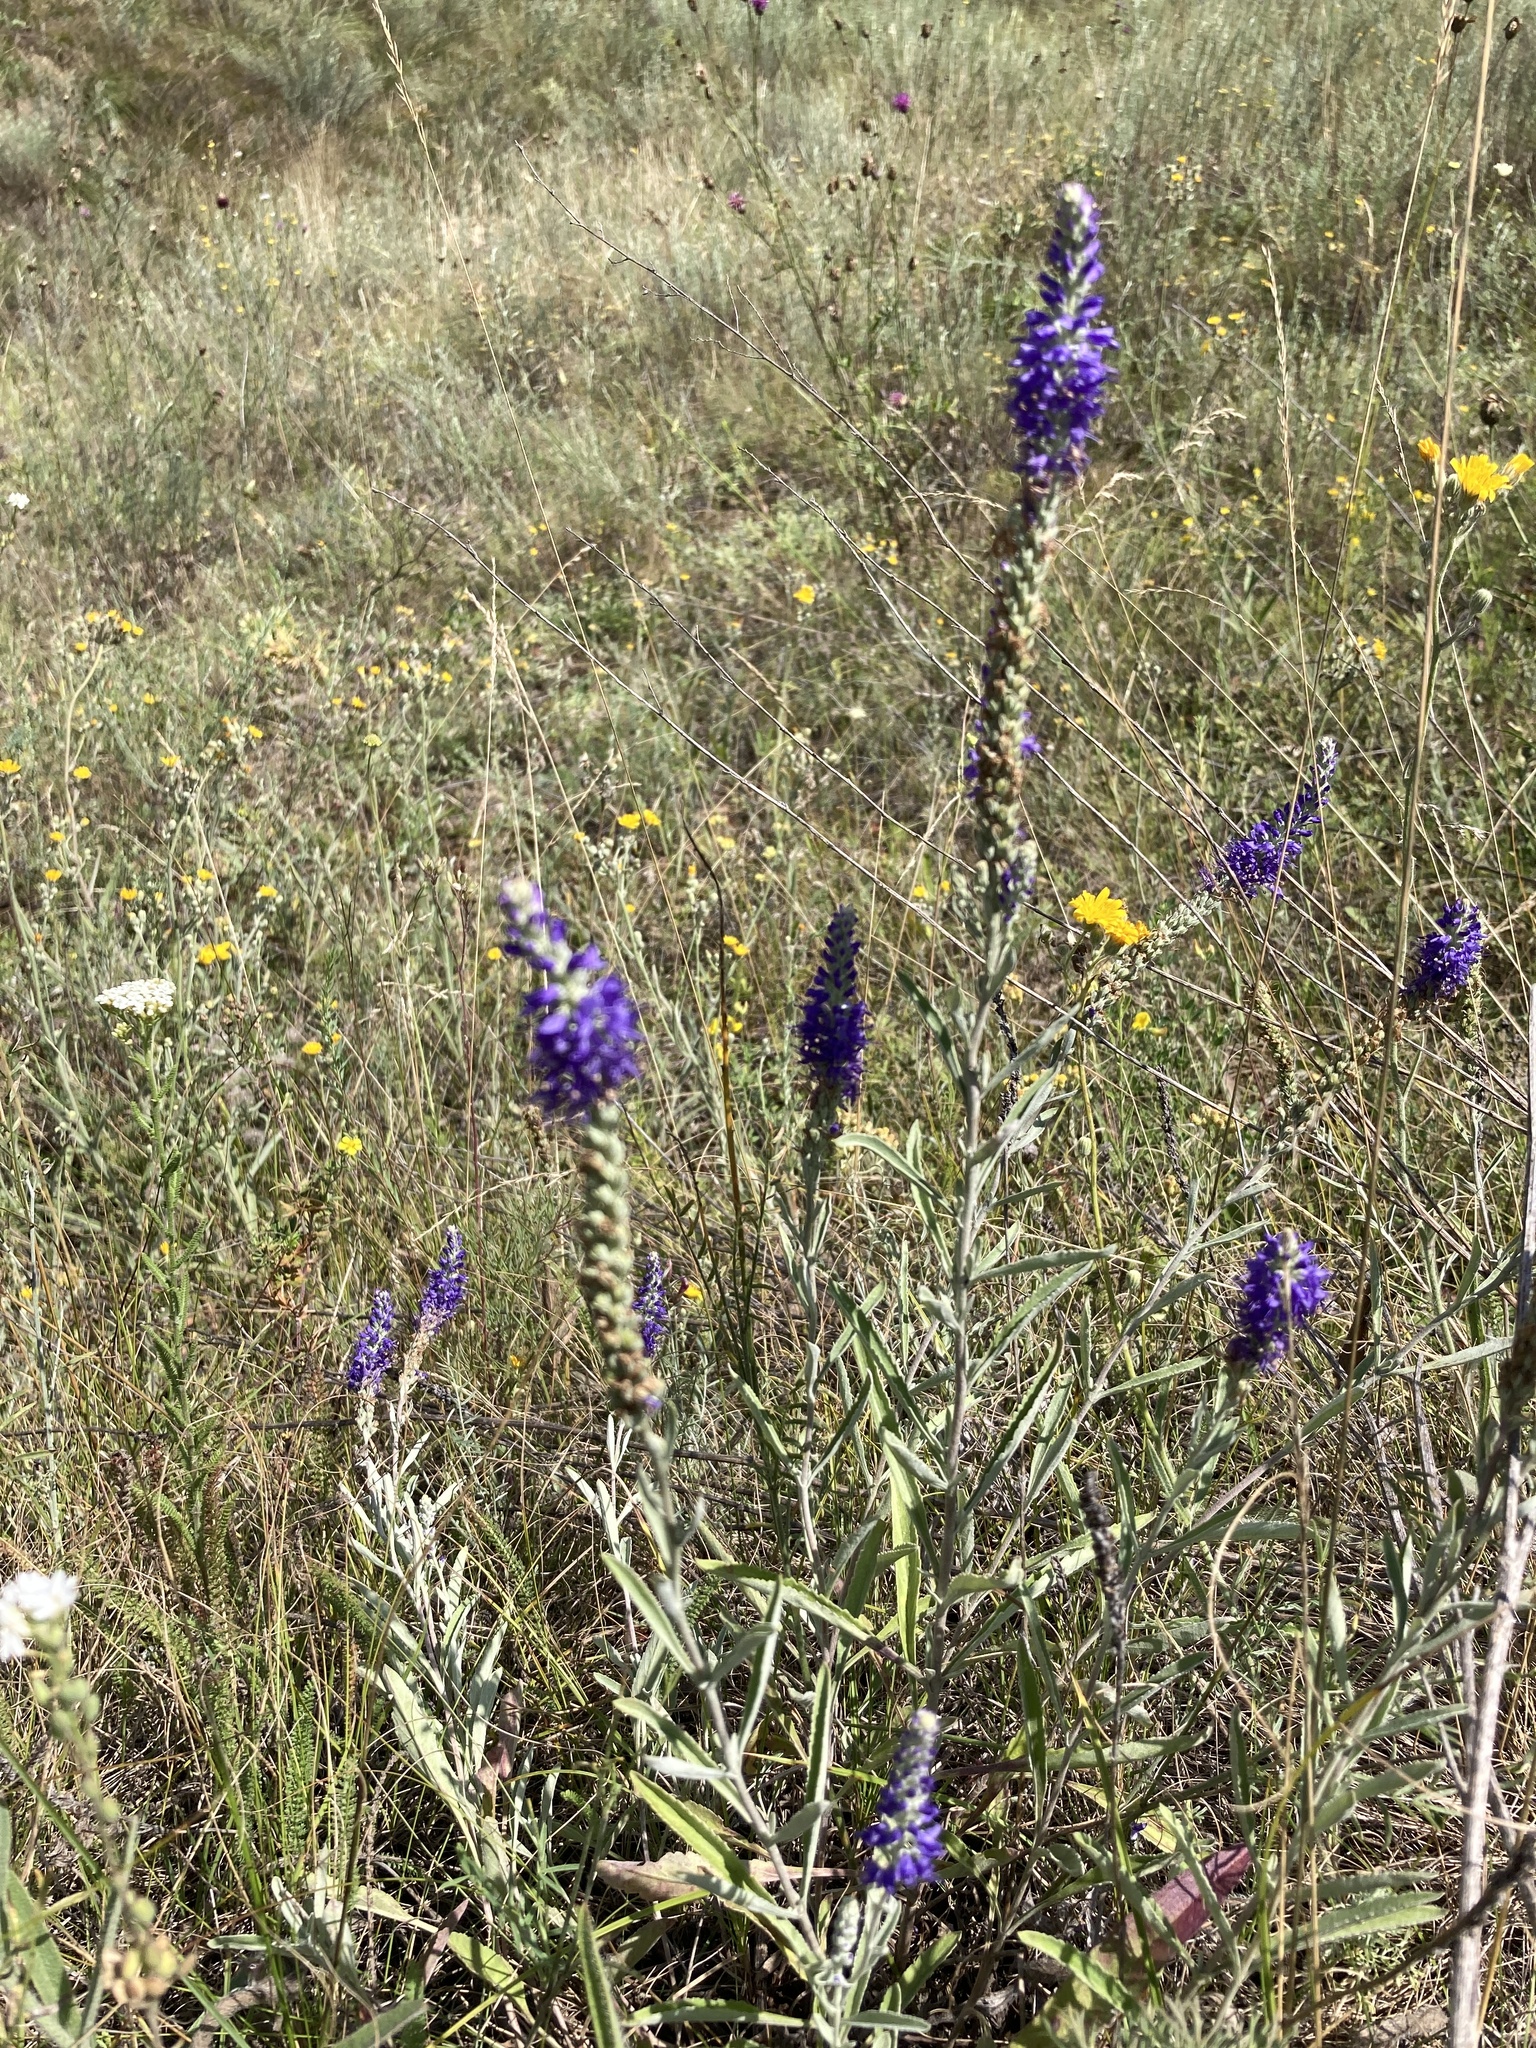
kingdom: Plantae
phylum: Tracheophyta
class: Magnoliopsida
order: Lamiales
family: Plantaginaceae
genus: Veronica
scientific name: Veronica incana
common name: Silver speedwell
